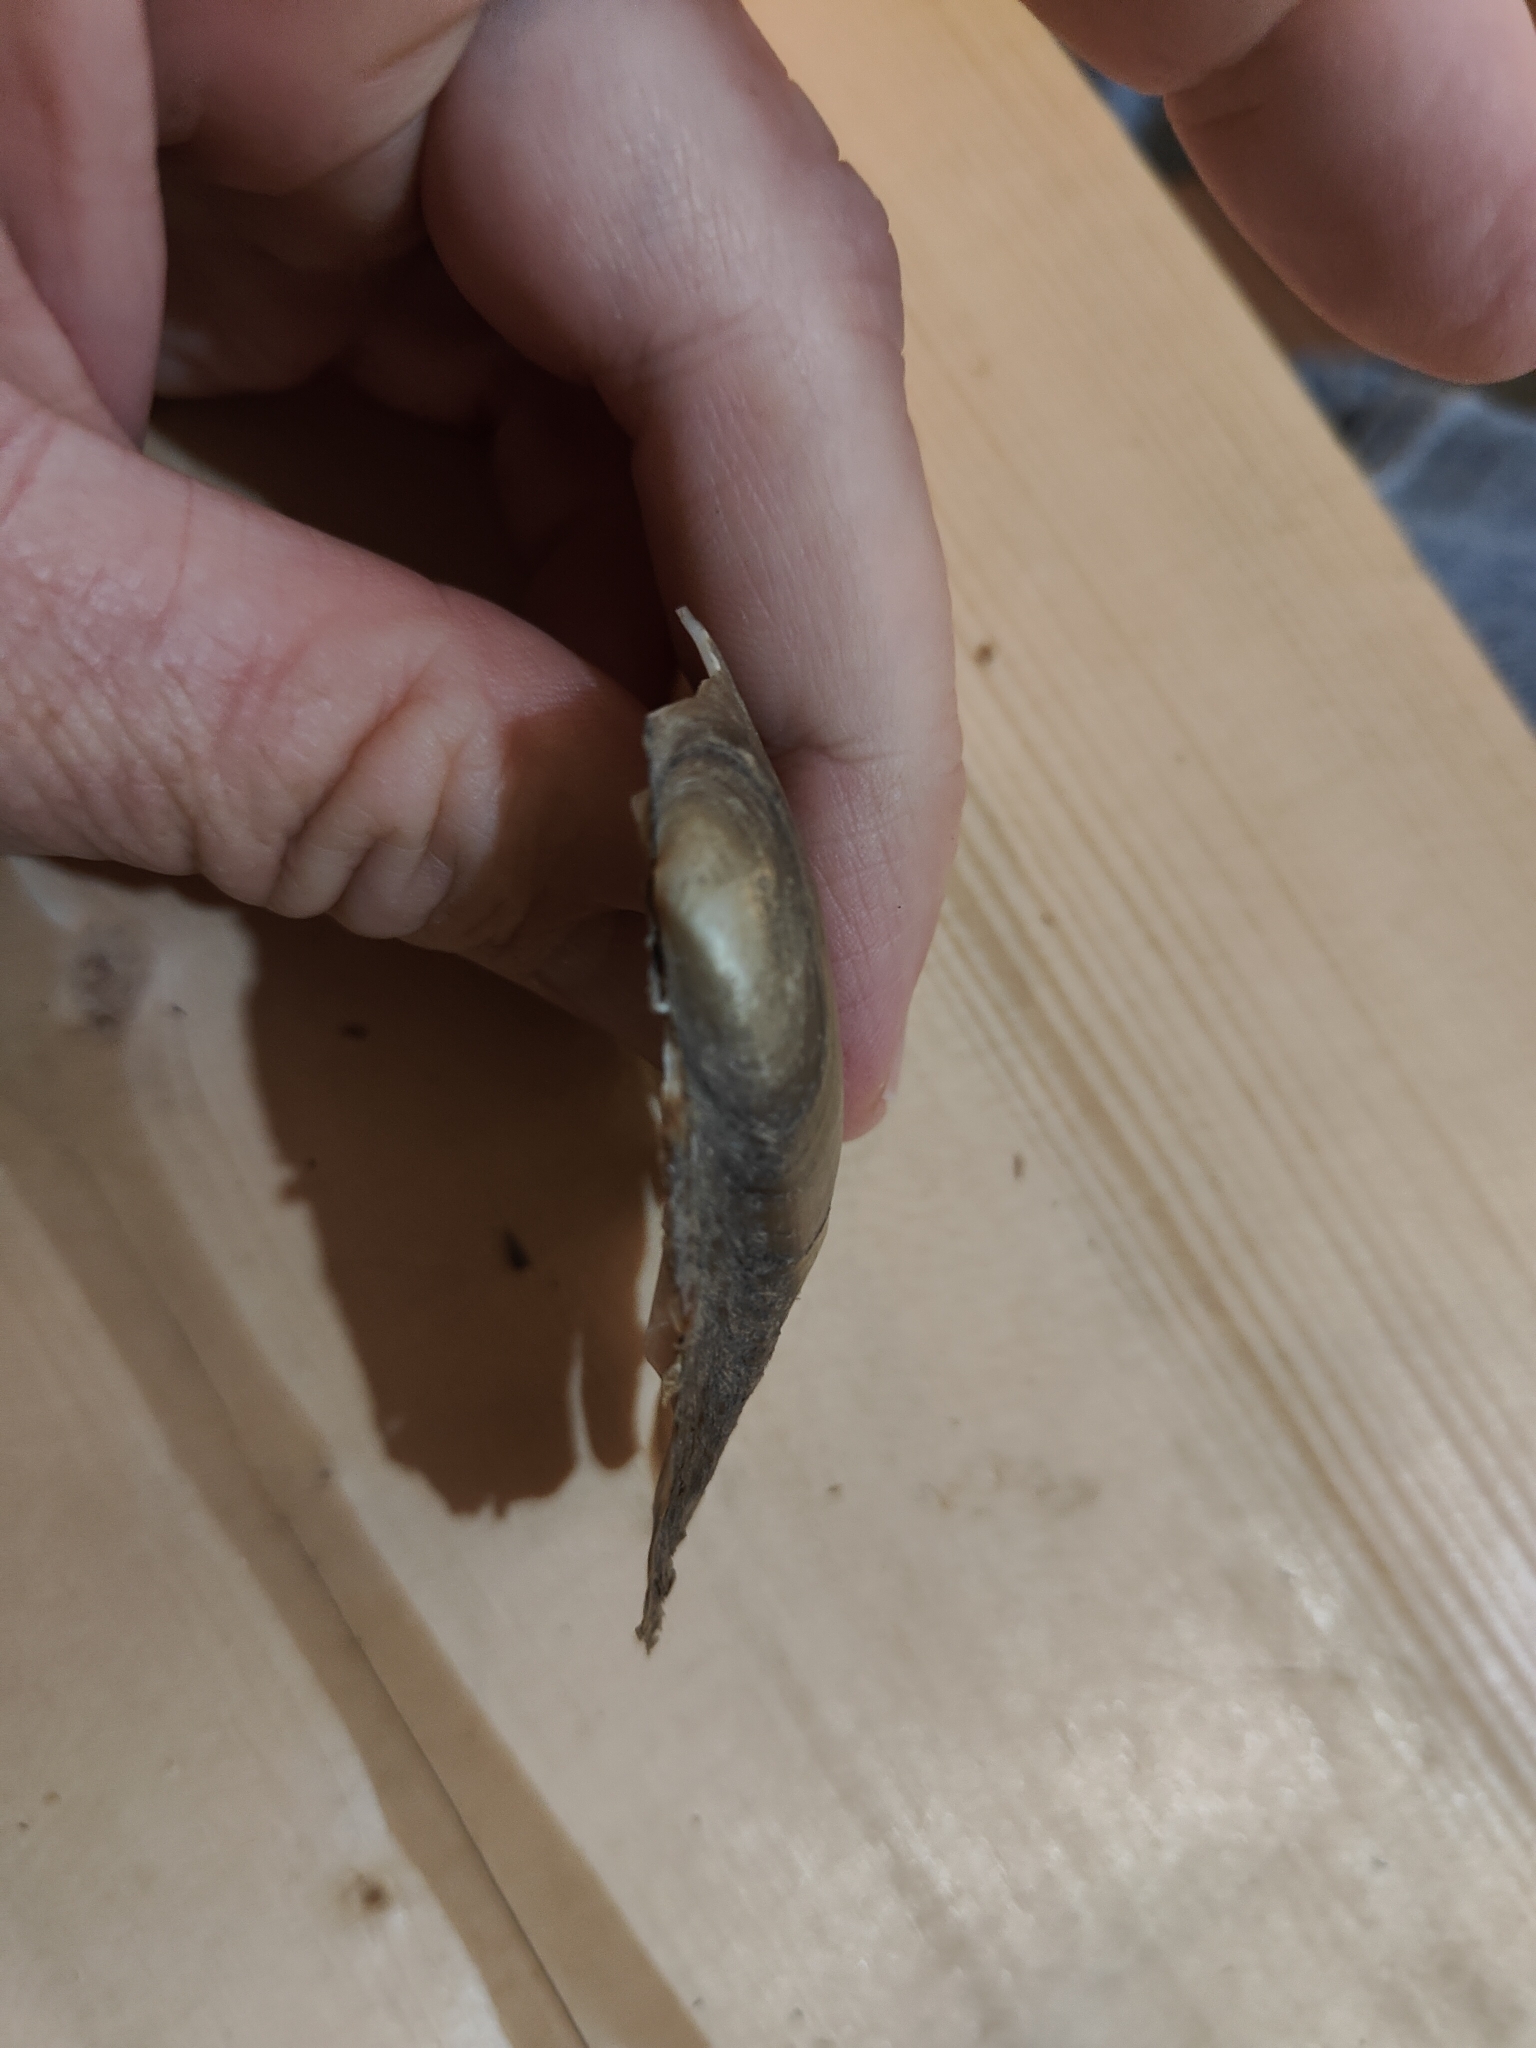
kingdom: Animalia
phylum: Mollusca
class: Bivalvia
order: Unionida
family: Unionidae
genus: Potamilus
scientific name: Potamilus fragilis
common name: Fragile papershell
